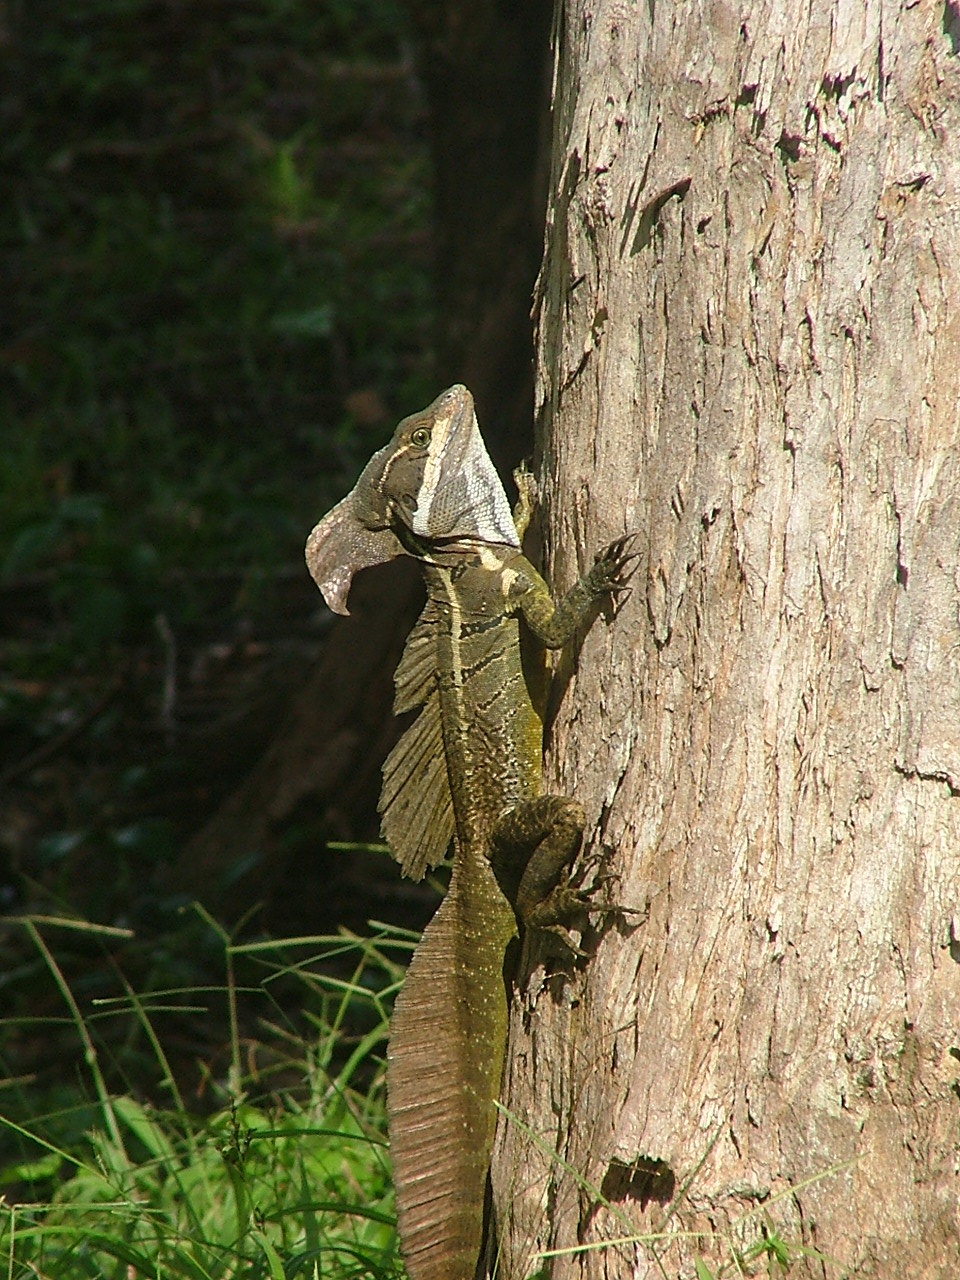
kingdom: Animalia
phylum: Chordata
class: Squamata
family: Corytophanidae
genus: Basiliscus
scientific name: Basiliscus basiliscus
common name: Common basilisk
